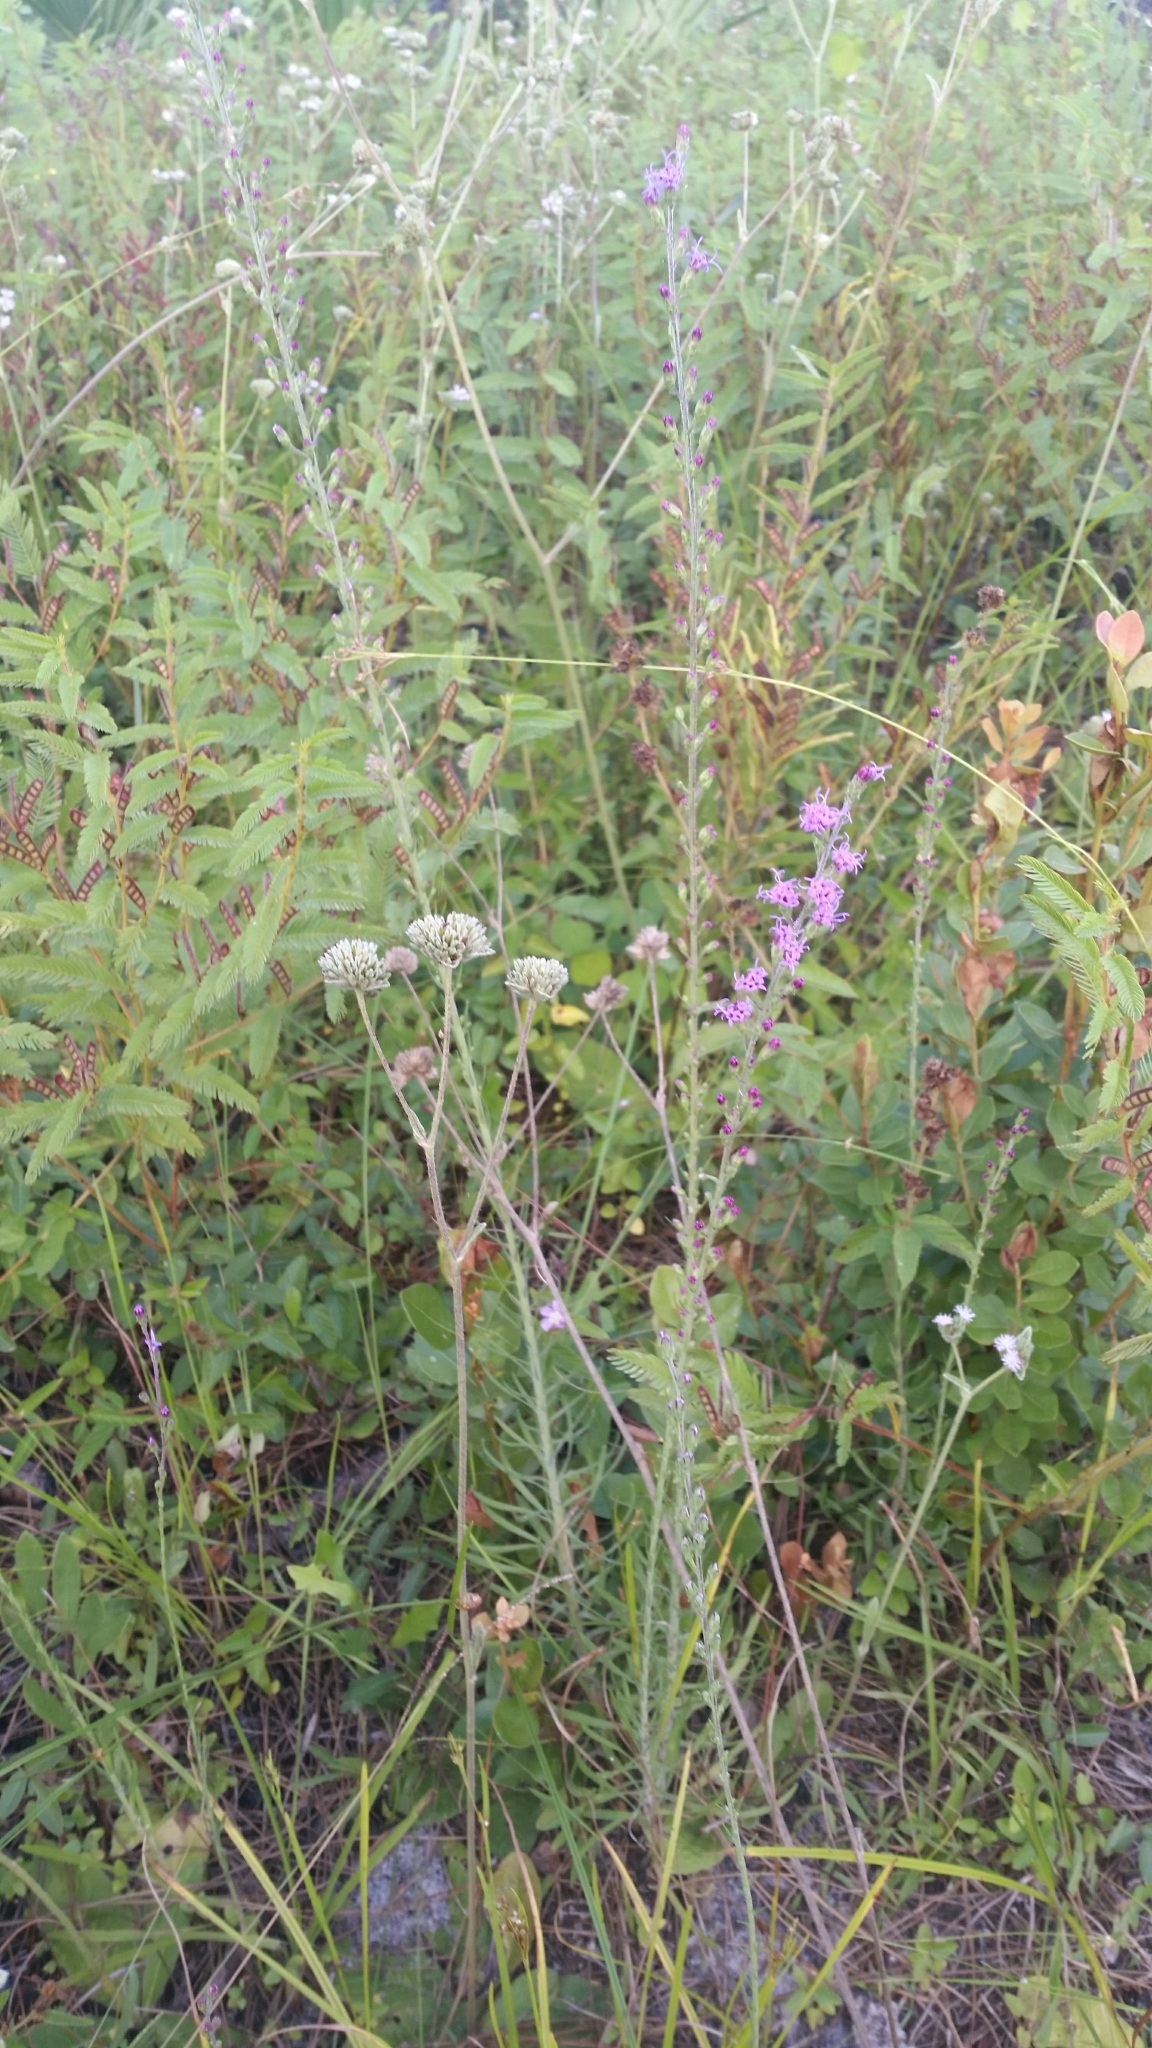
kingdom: Plantae
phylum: Tracheophyta
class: Magnoliopsida
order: Asterales
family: Asteraceae
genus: Liatris
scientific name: Liatris gracilis
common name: Slender gayfeather
